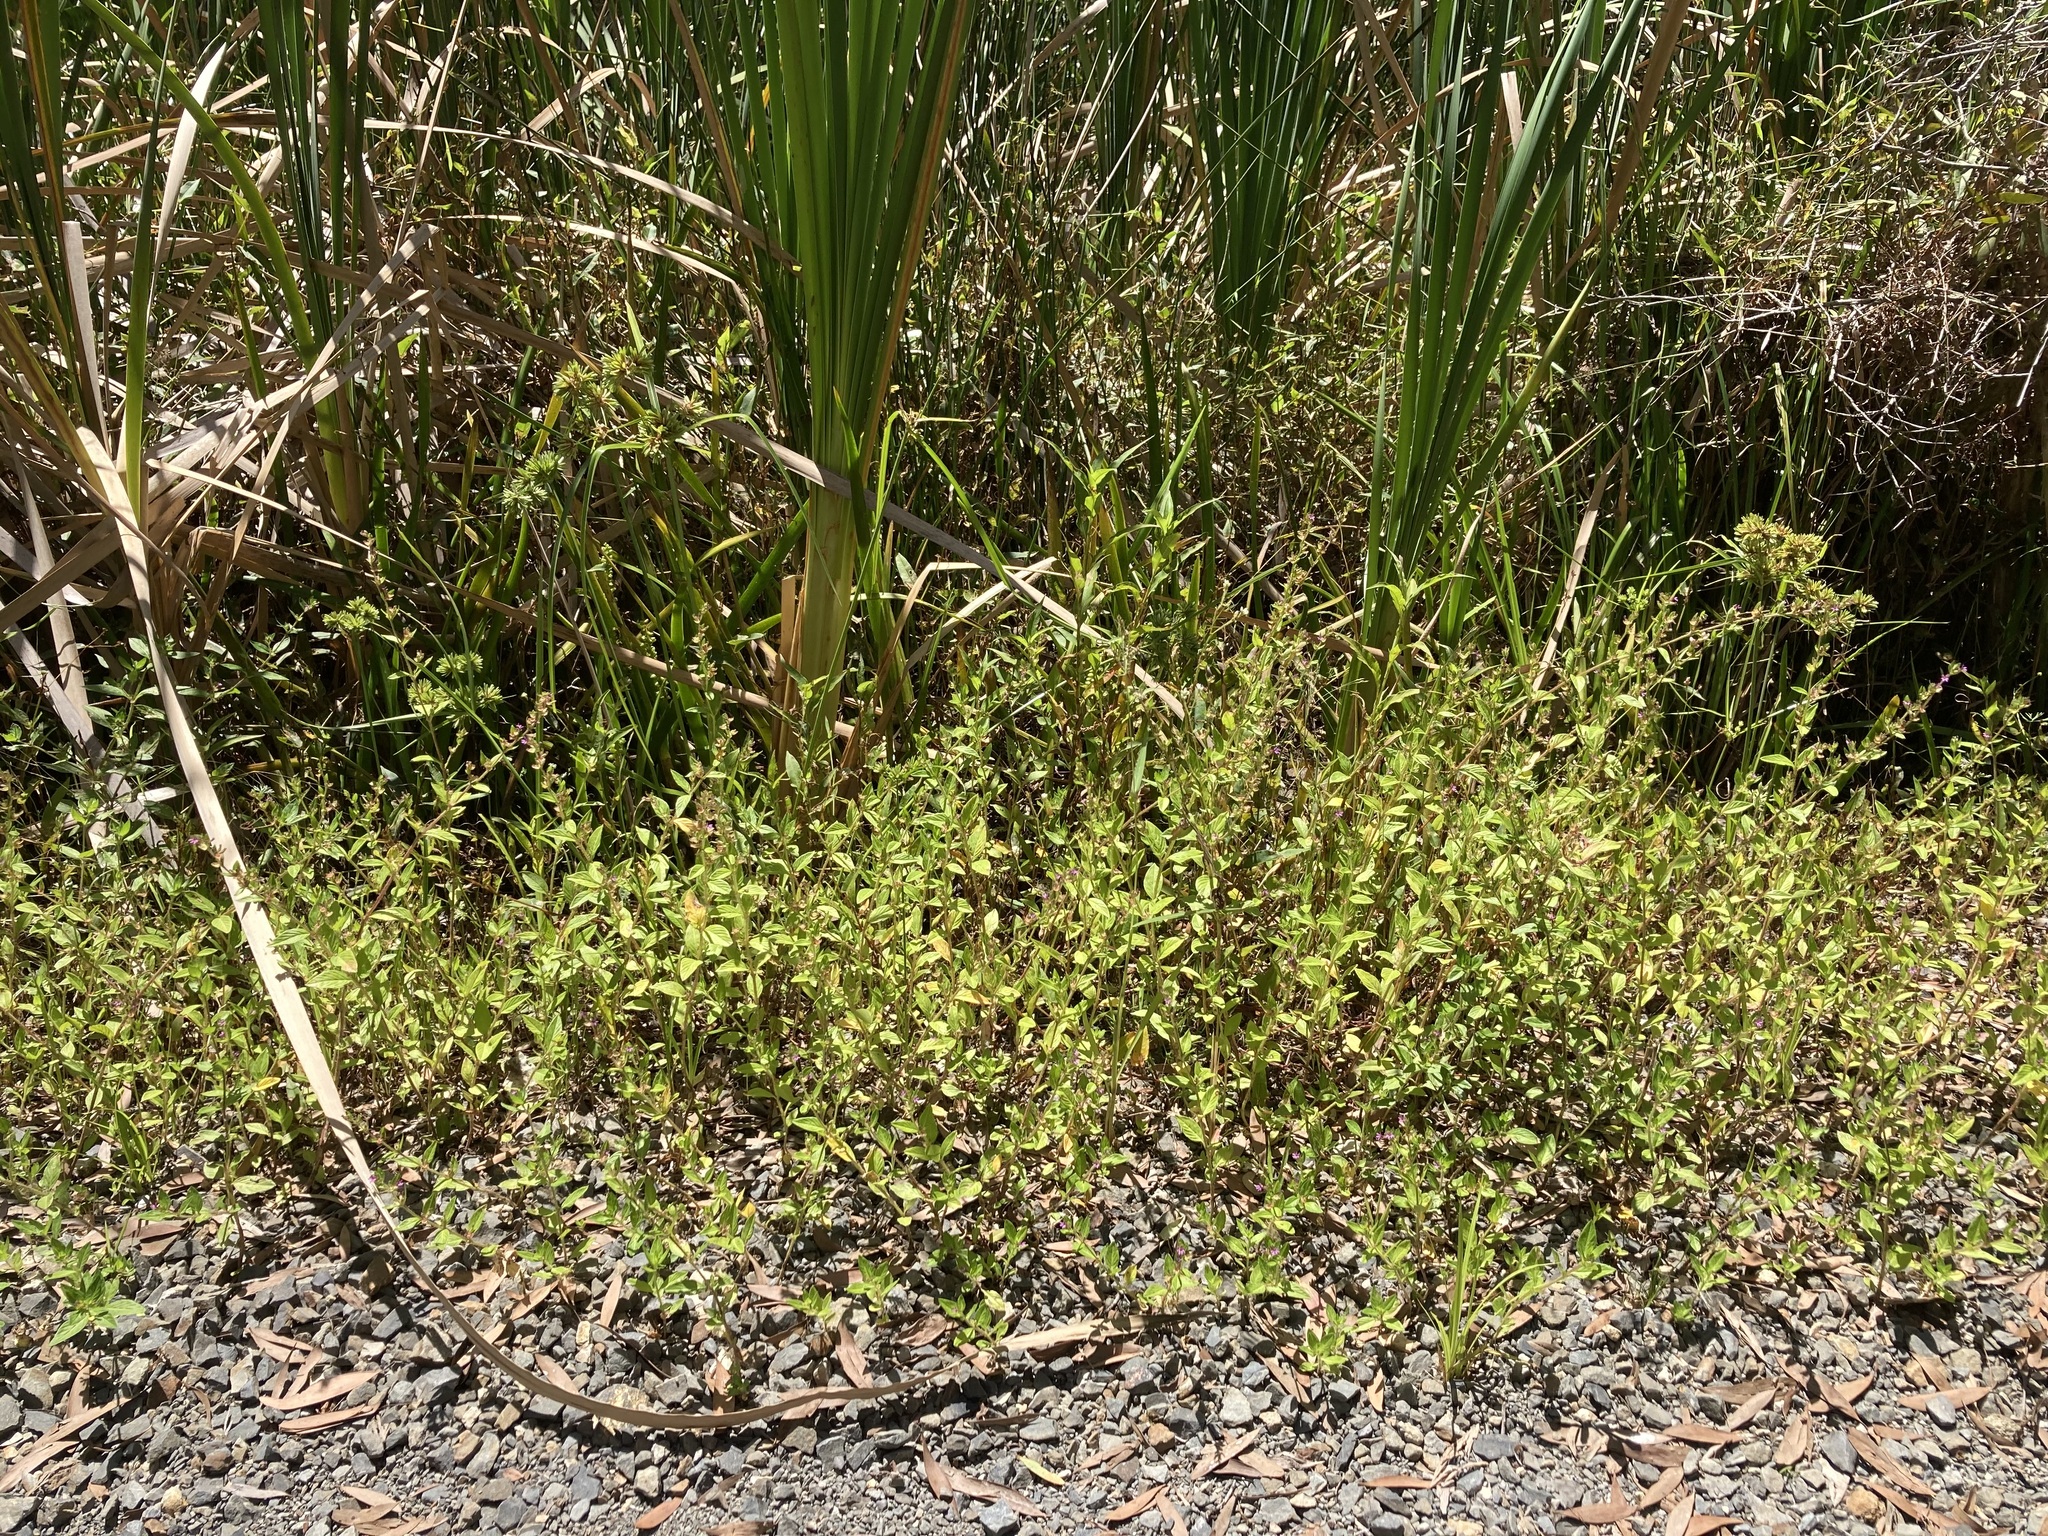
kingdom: Plantae
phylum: Tracheophyta
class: Magnoliopsida
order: Myrtales
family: Lythraceae
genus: Cuphea
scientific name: Cuphea carthagenensis
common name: Colombian waxweed
